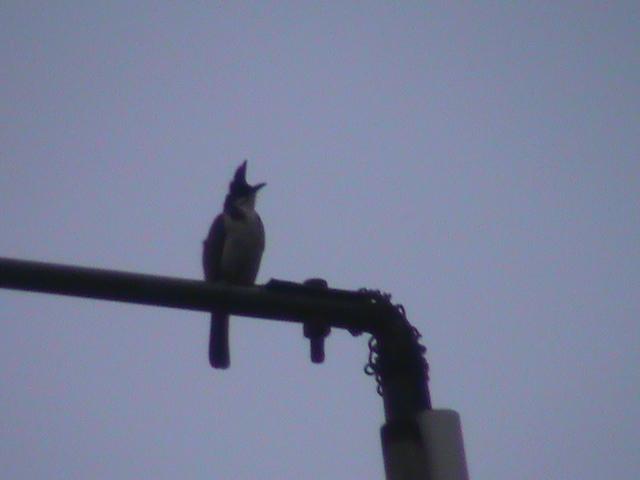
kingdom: Animalia
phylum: Chordata
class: Aves
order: Passeriformes
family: Pycnonotidae
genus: Pycnonotus
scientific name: Pycnonotus jocosus
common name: Red-whiskered bulbul
